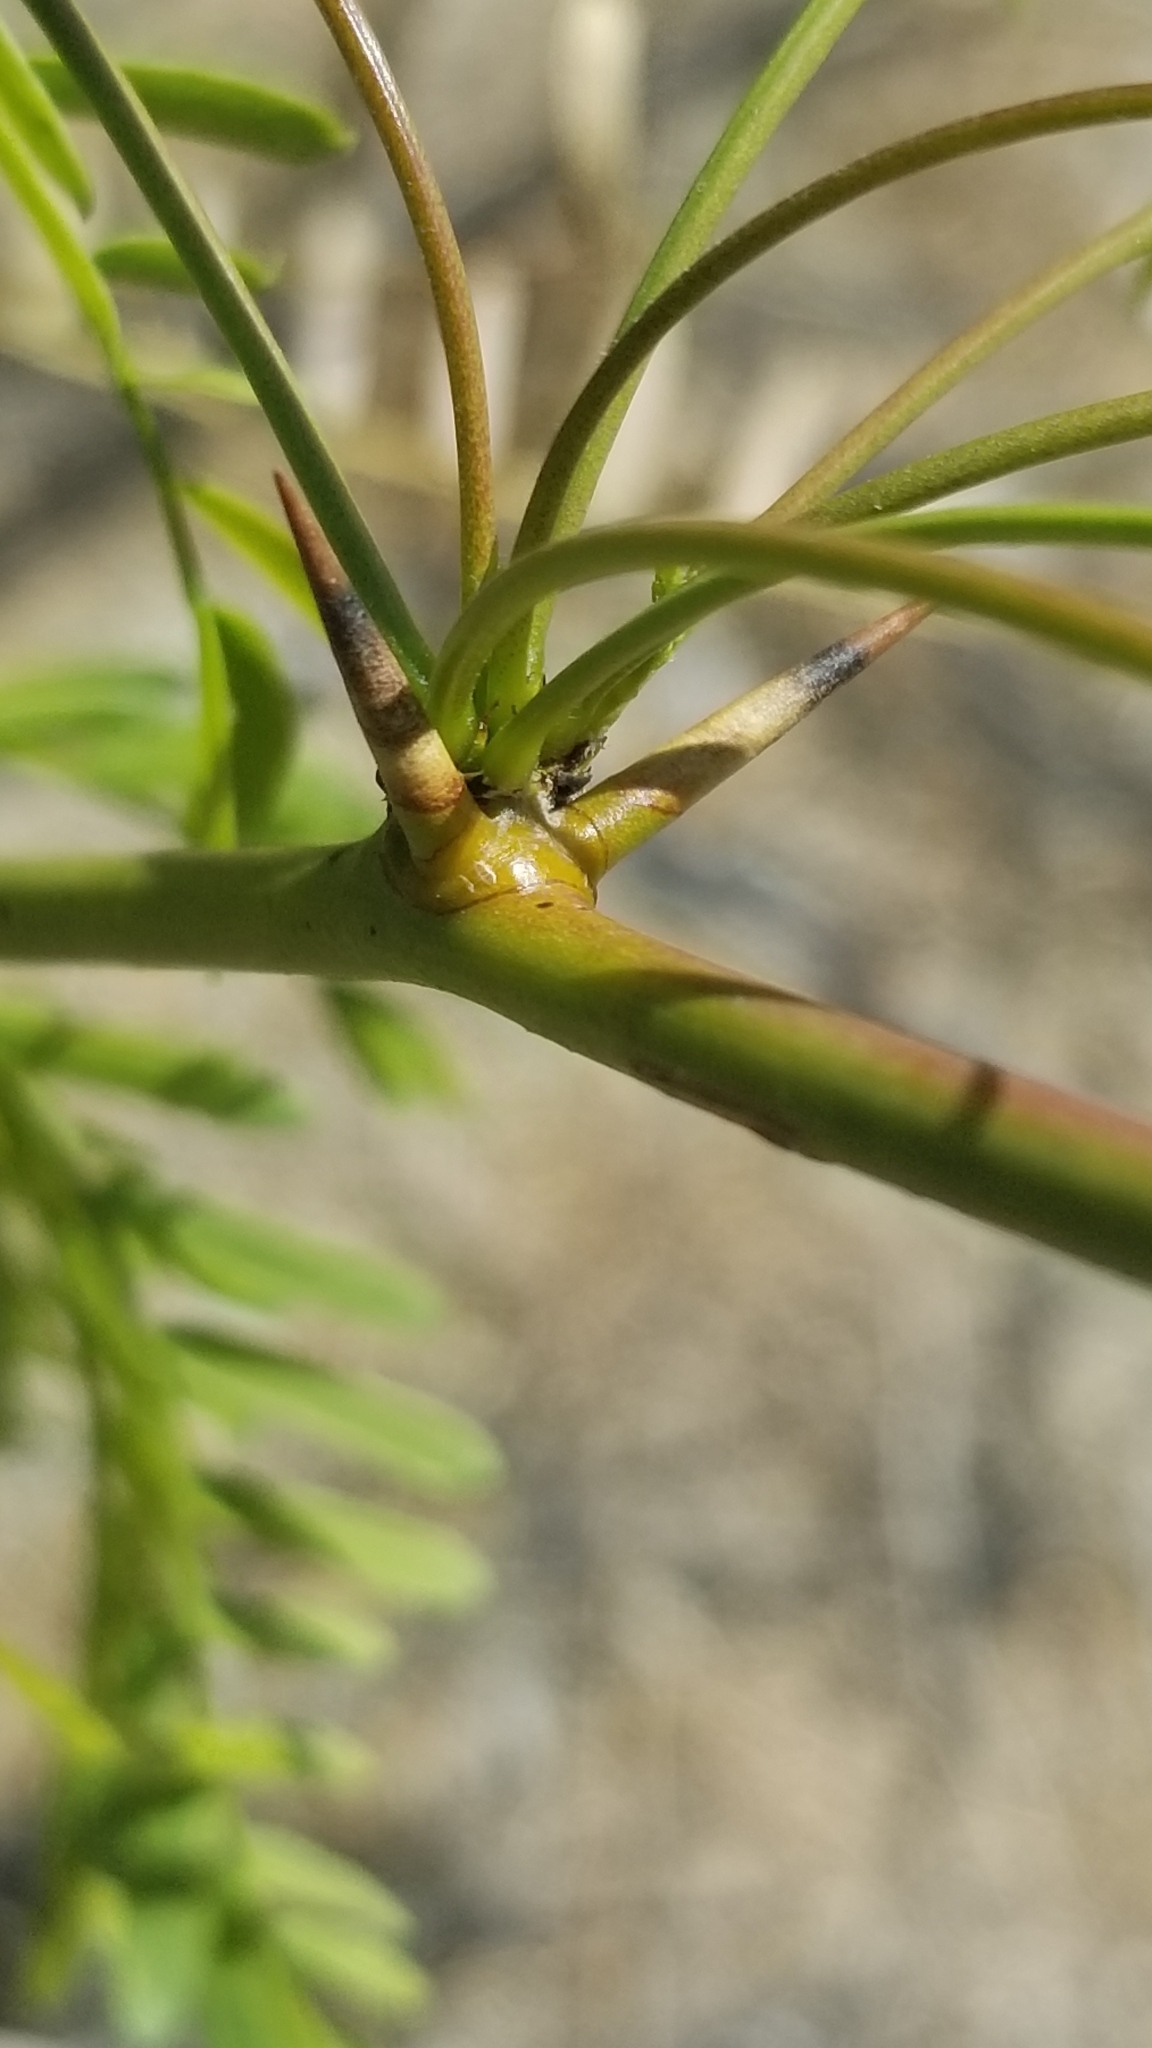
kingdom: Plantae
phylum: Tracheophyta
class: Magnoliopsida
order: Fabales
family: Fabaceae
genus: Prosopis
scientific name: Prosopis pubescens
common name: Screw-bean
